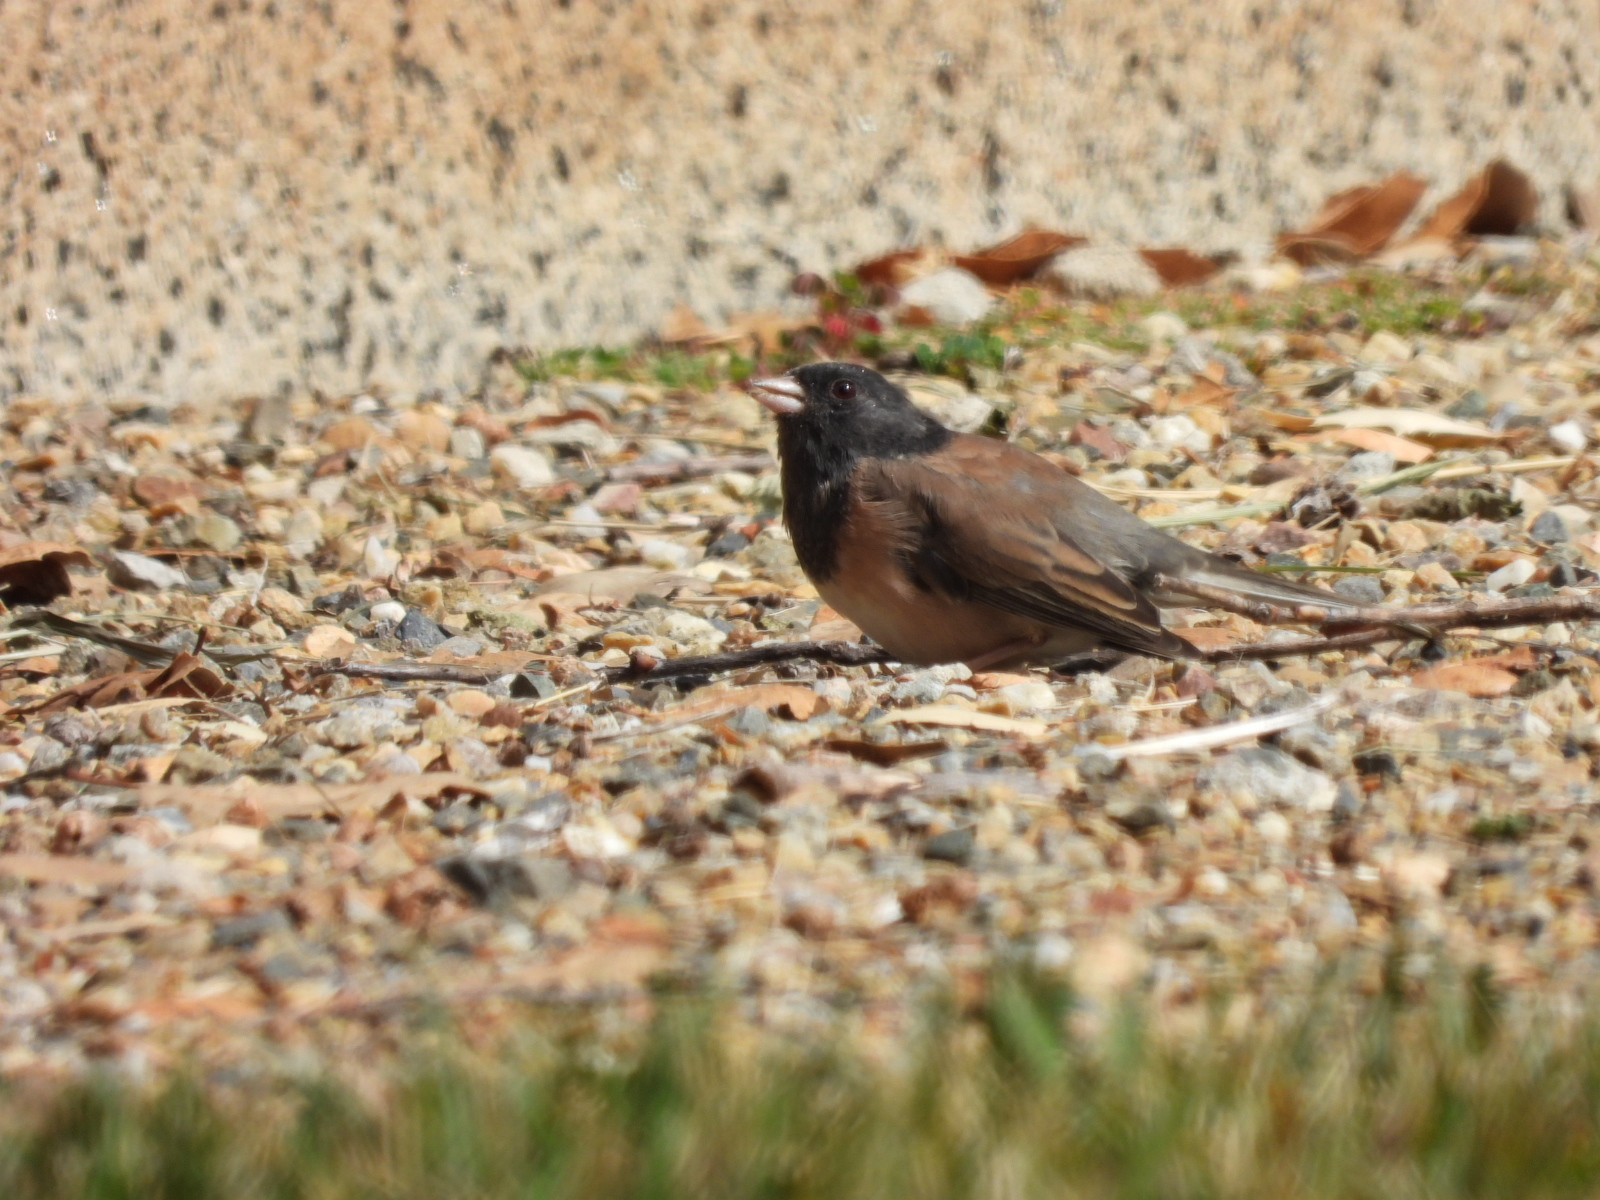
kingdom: Animalia
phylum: Chordata
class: Aves
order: Passeriformes
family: Passerellidae
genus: Junco
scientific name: Junco hyemalis
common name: Dark-eyed junco
